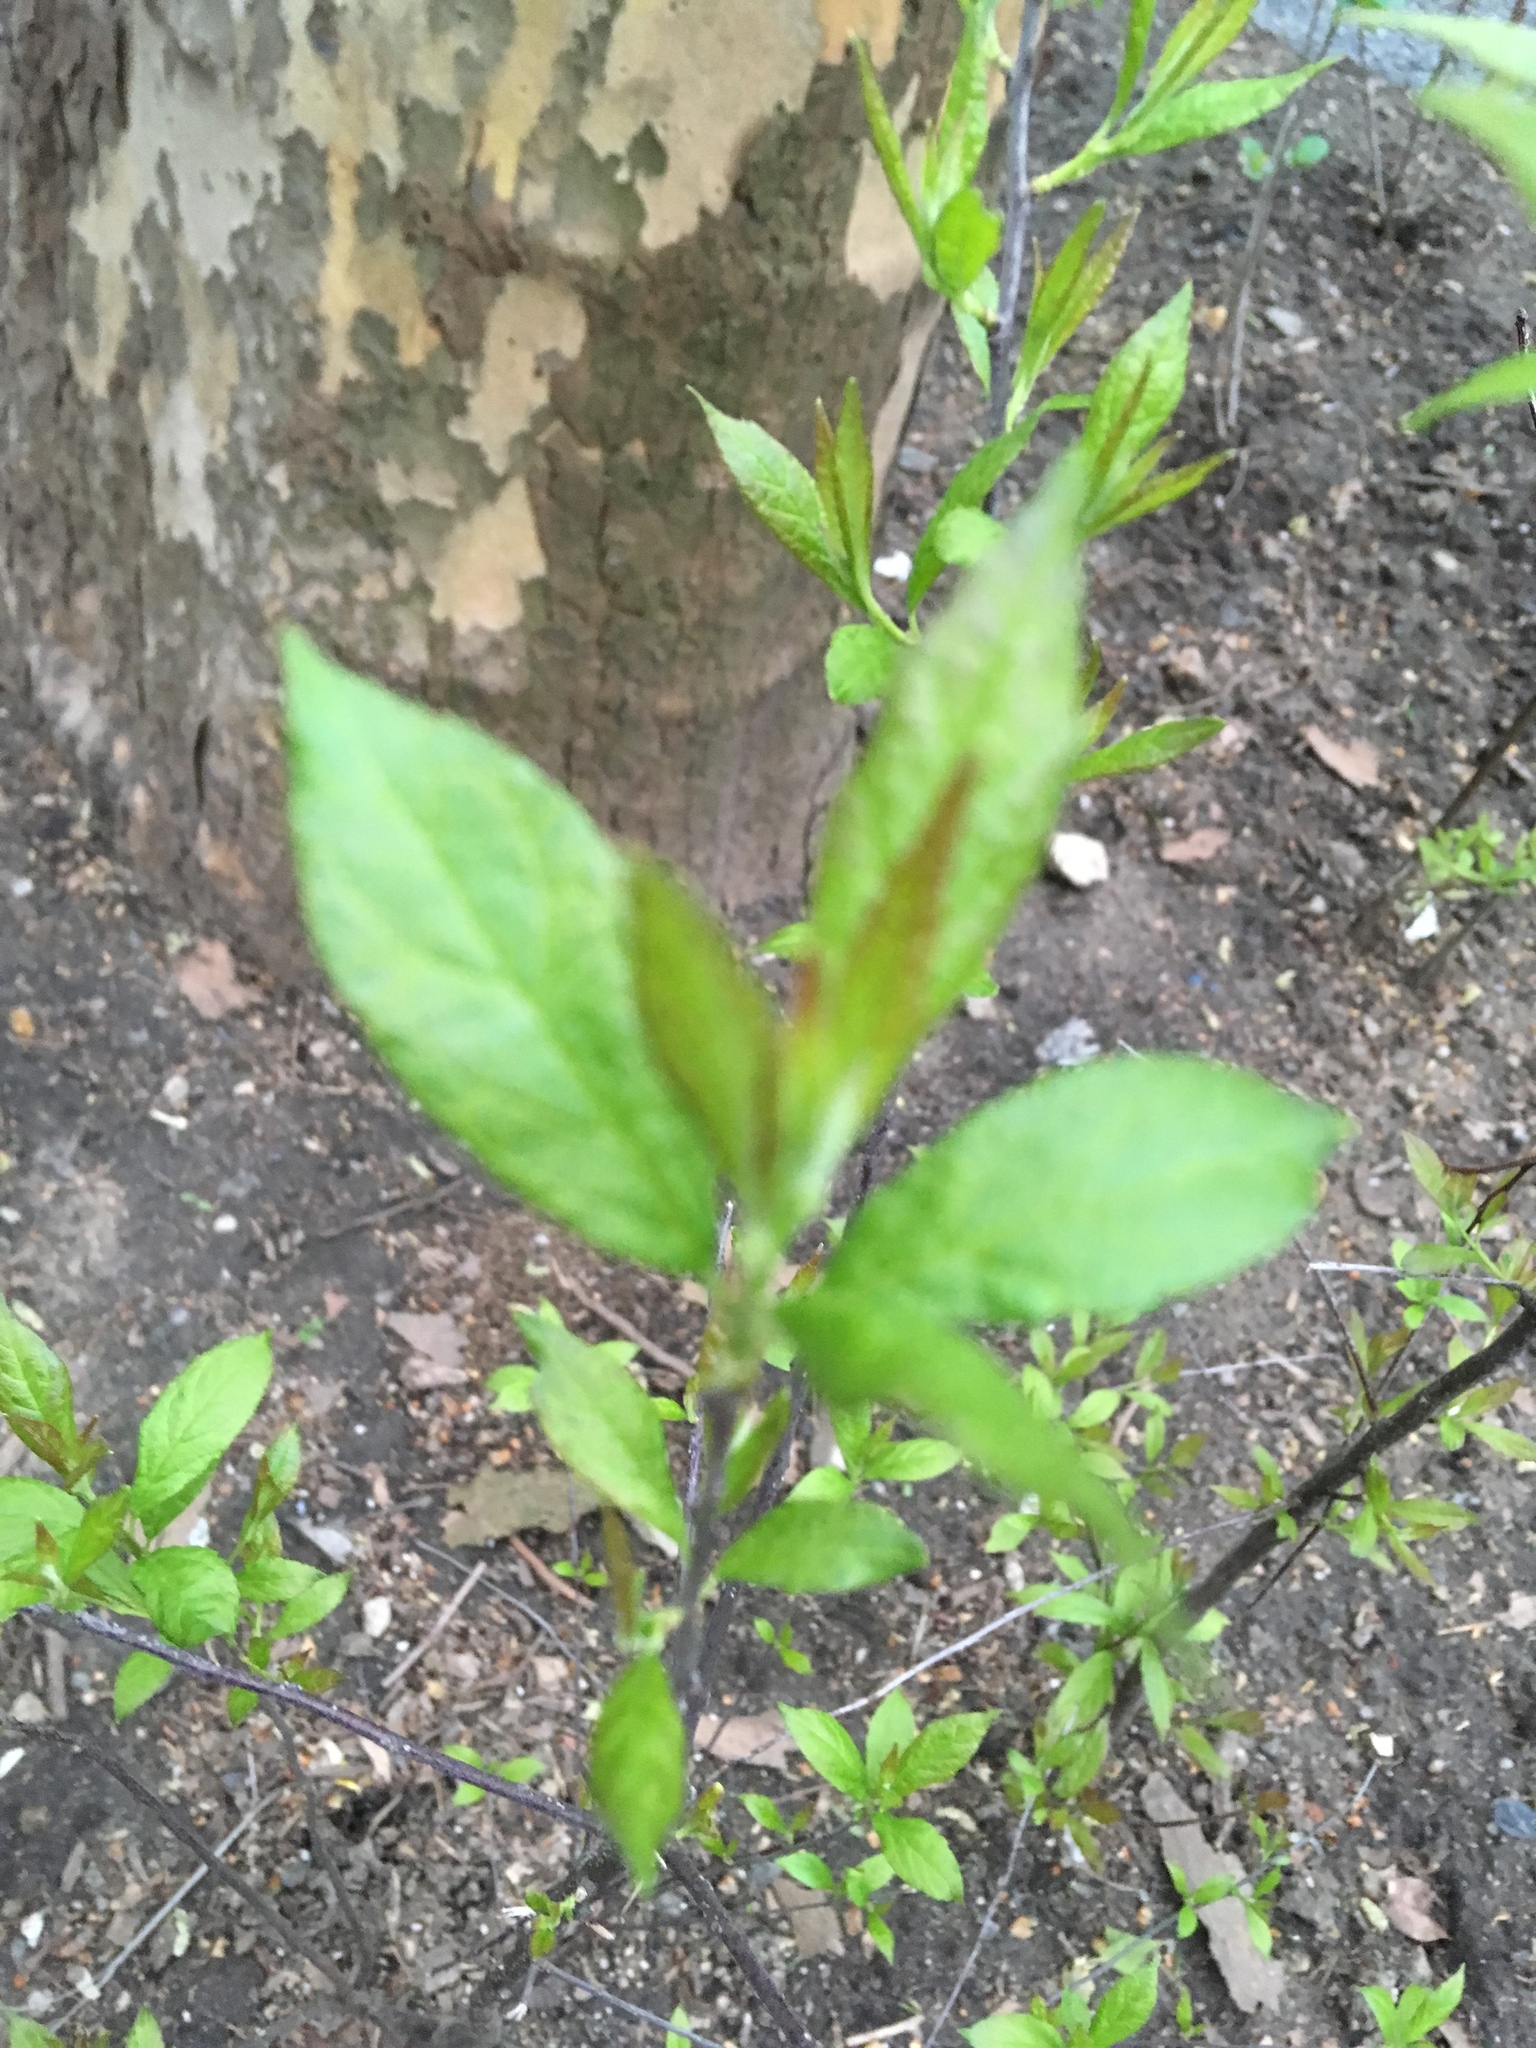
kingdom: Plantae
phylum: Tracheophyta
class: Magnoliopsida
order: Aquifoliales
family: Aquifoliaceae
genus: Ilex
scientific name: Ilex verticillata
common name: Virginia winterberry
